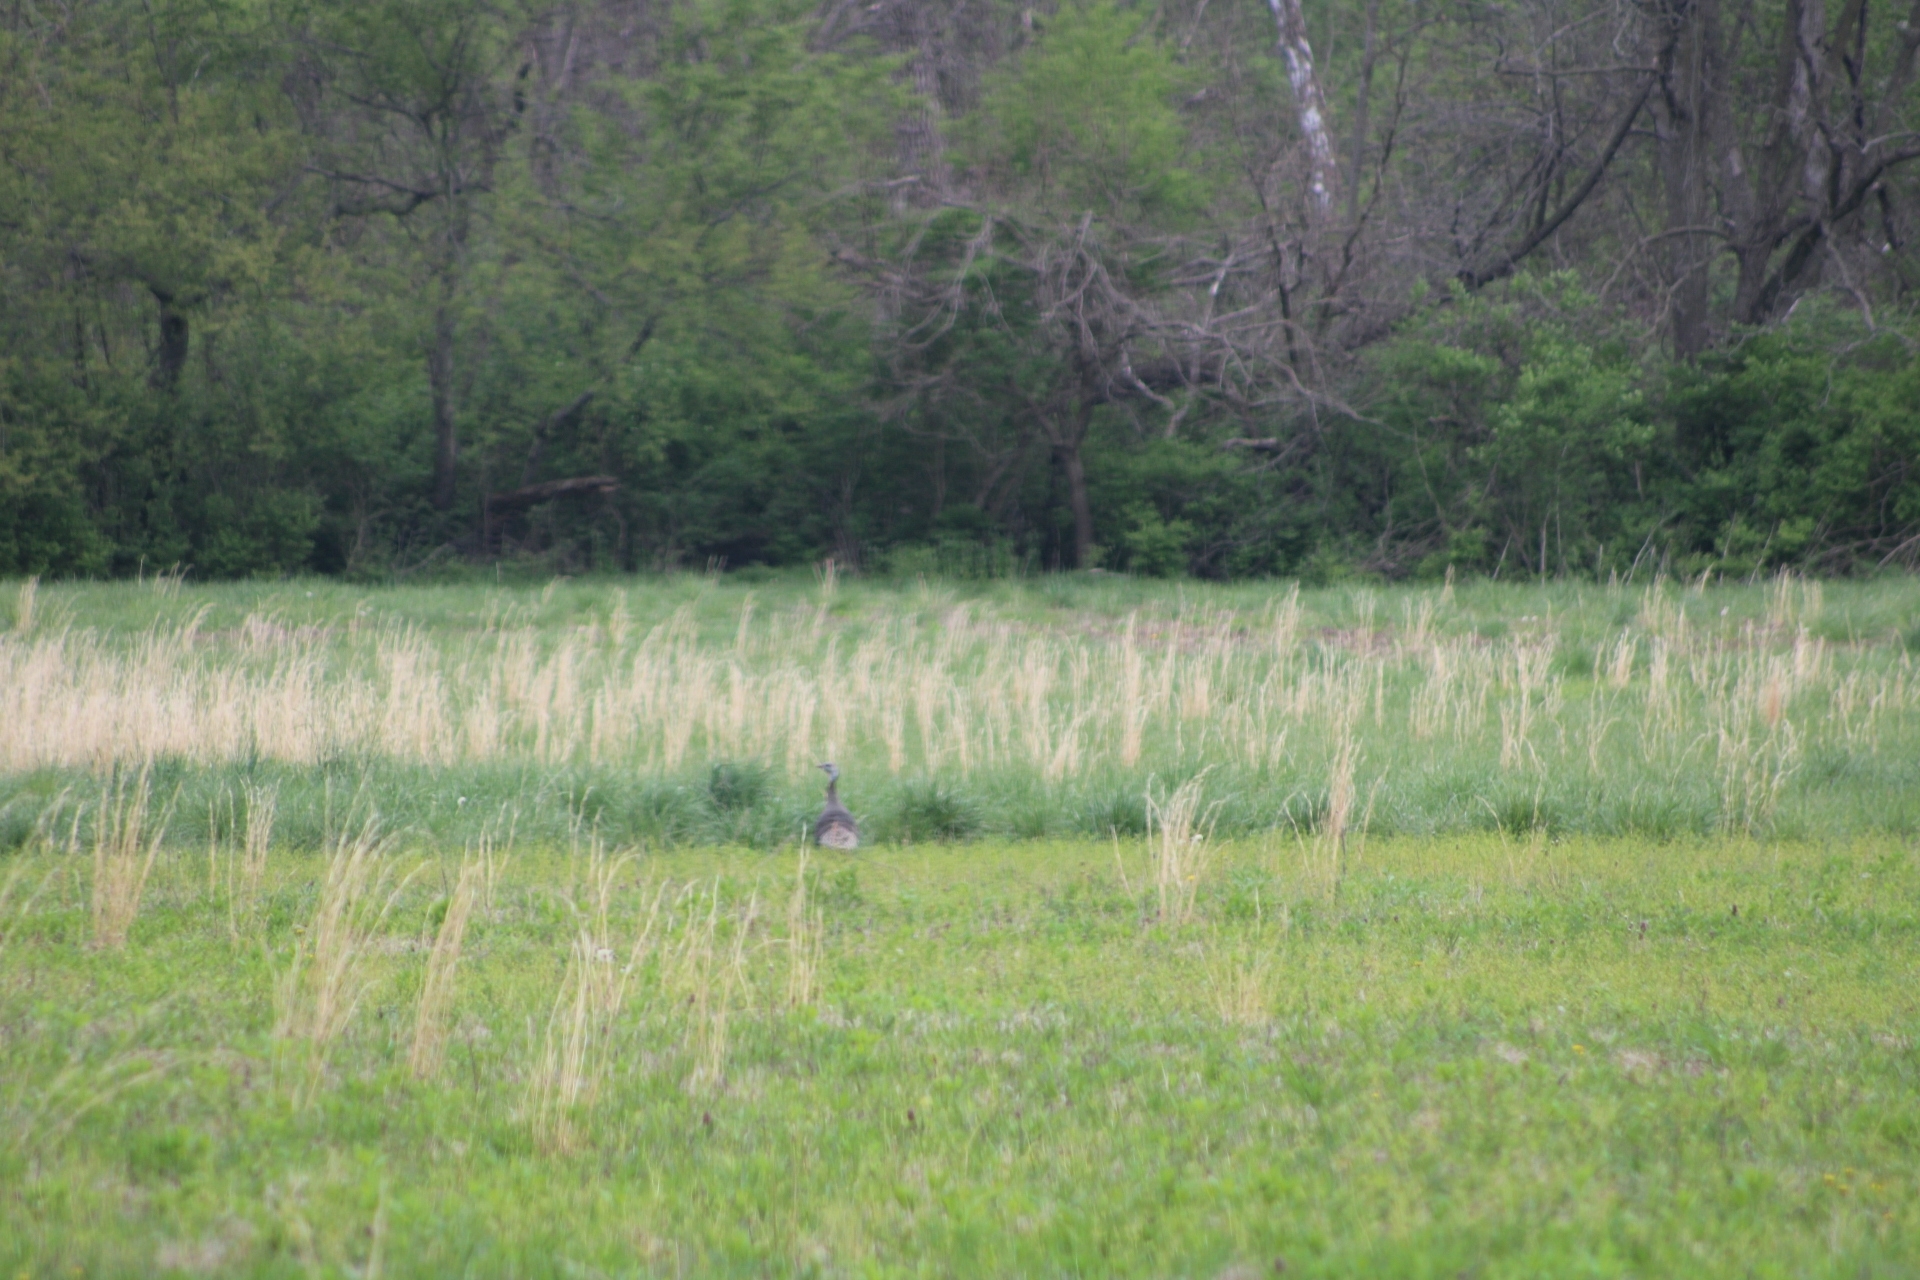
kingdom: Animalia
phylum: Chordata
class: Aves
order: Galliformes
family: Phasianidae
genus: Meleagris
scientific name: Meleagris gallopavo
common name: Wild turkey
